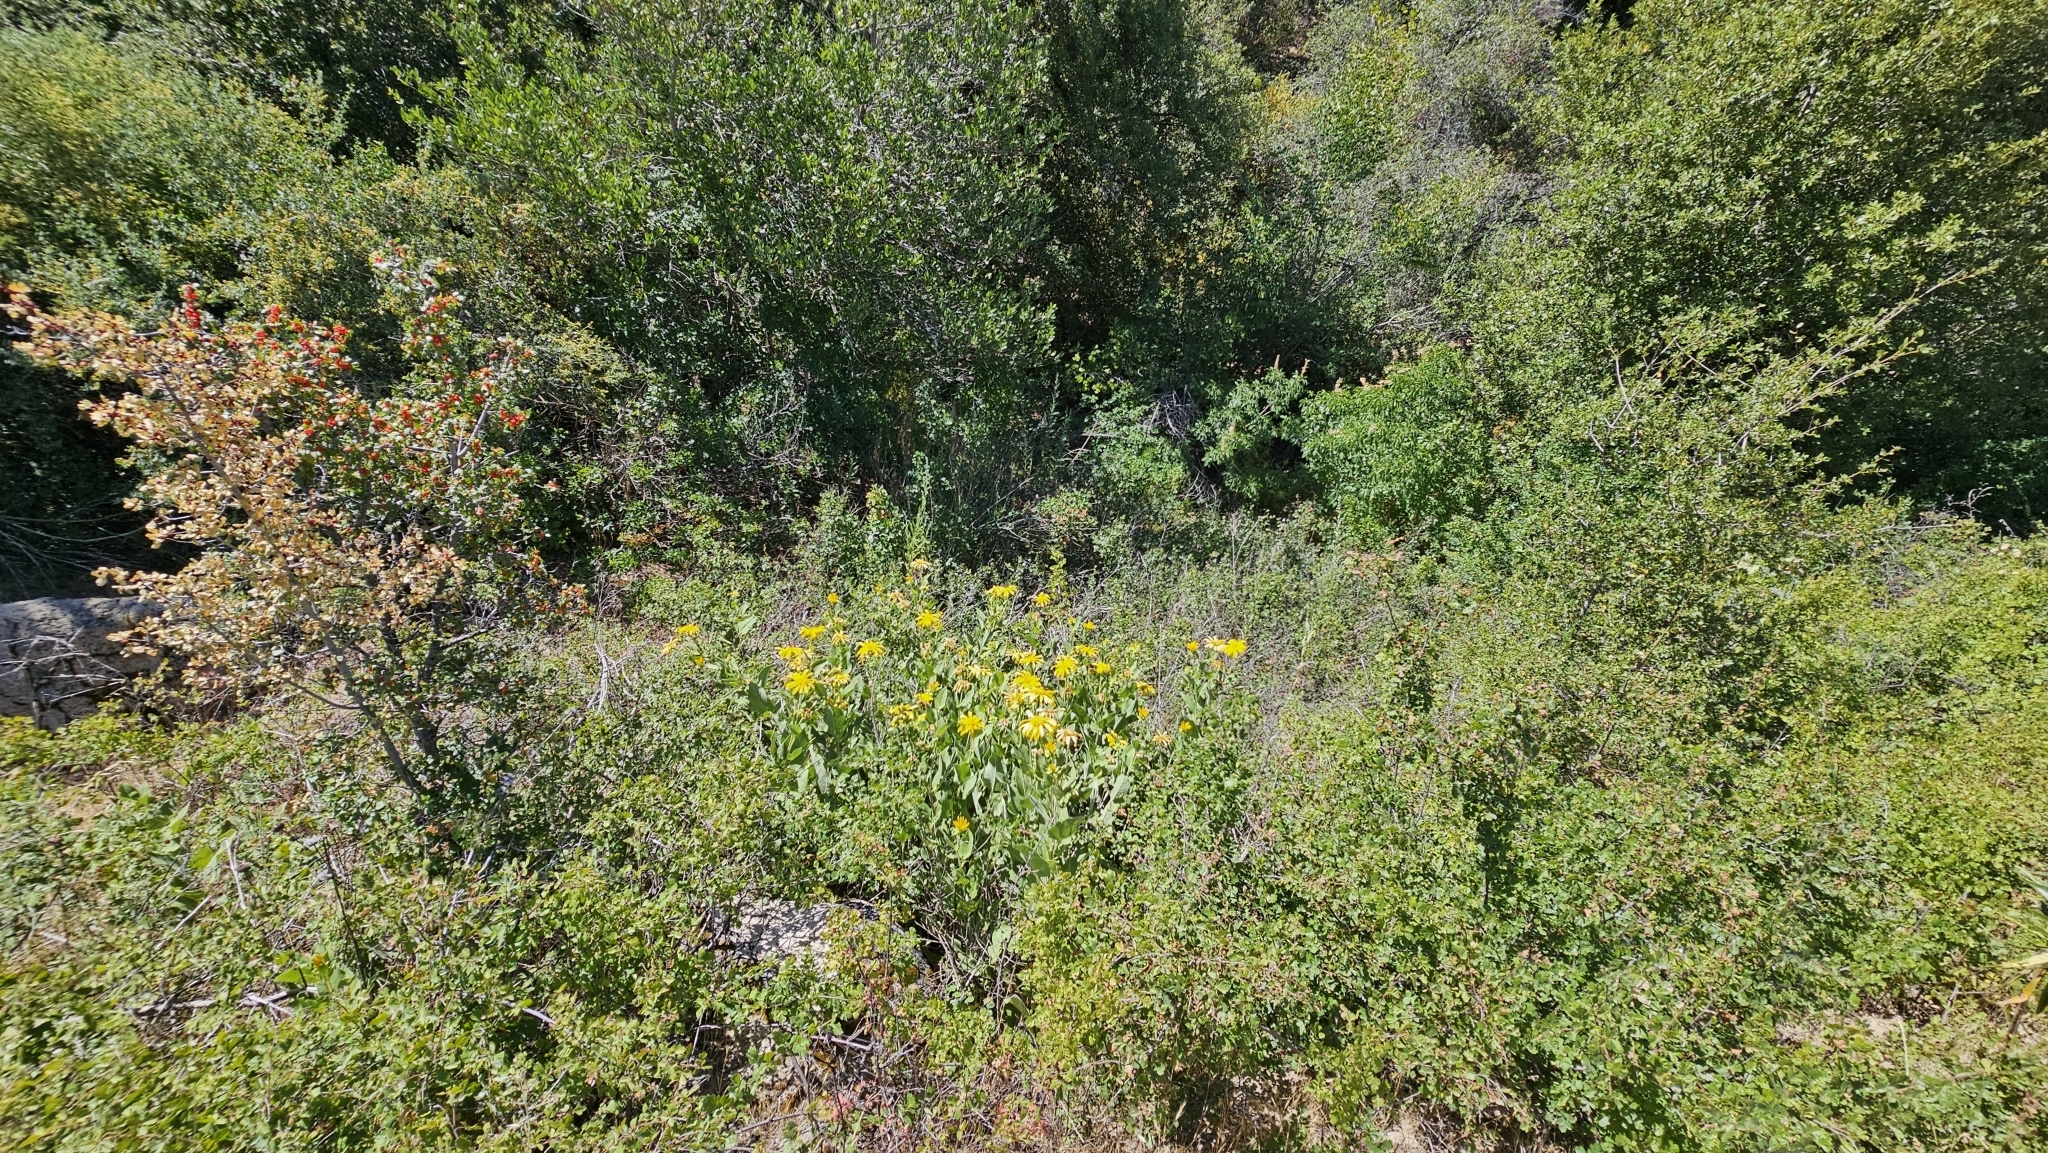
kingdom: Plantae
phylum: Tracheophyta
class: Magnoliopsida
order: Asterales
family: Asteraceae
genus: Agnorhiza
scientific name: Agnorhiza elata
